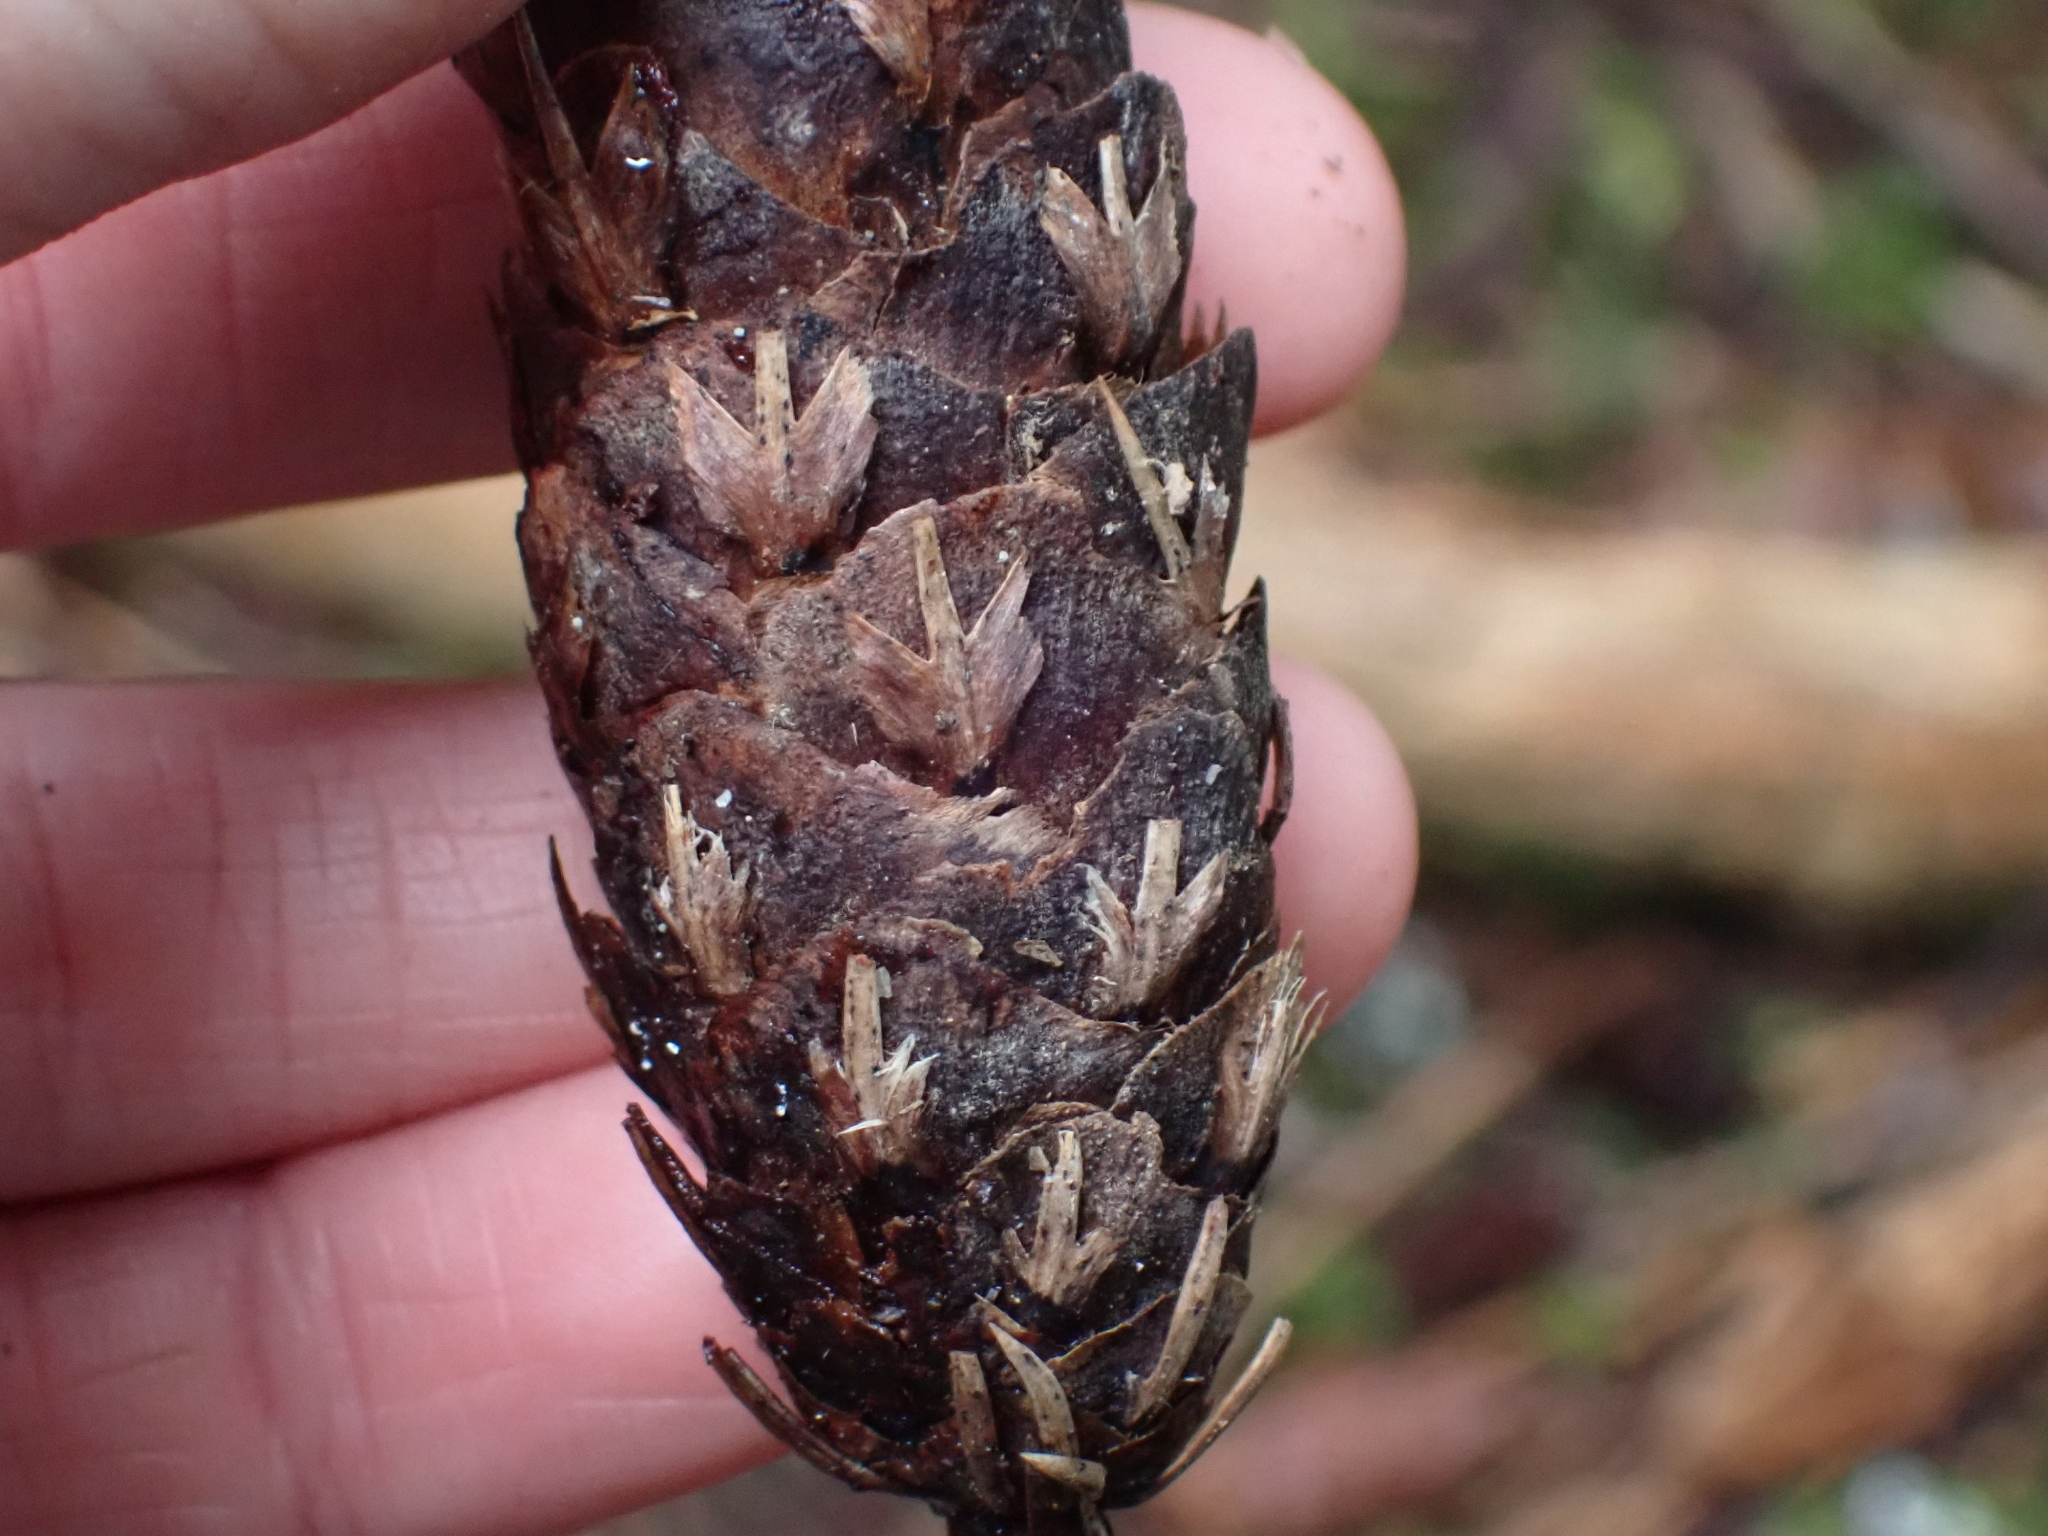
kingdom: Plantae
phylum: Tracheophyta
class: Pinopsida
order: Pinales
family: Pinaceae
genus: Pseudotsuga
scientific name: Pseudotsuga menziesii
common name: Douglas fir
